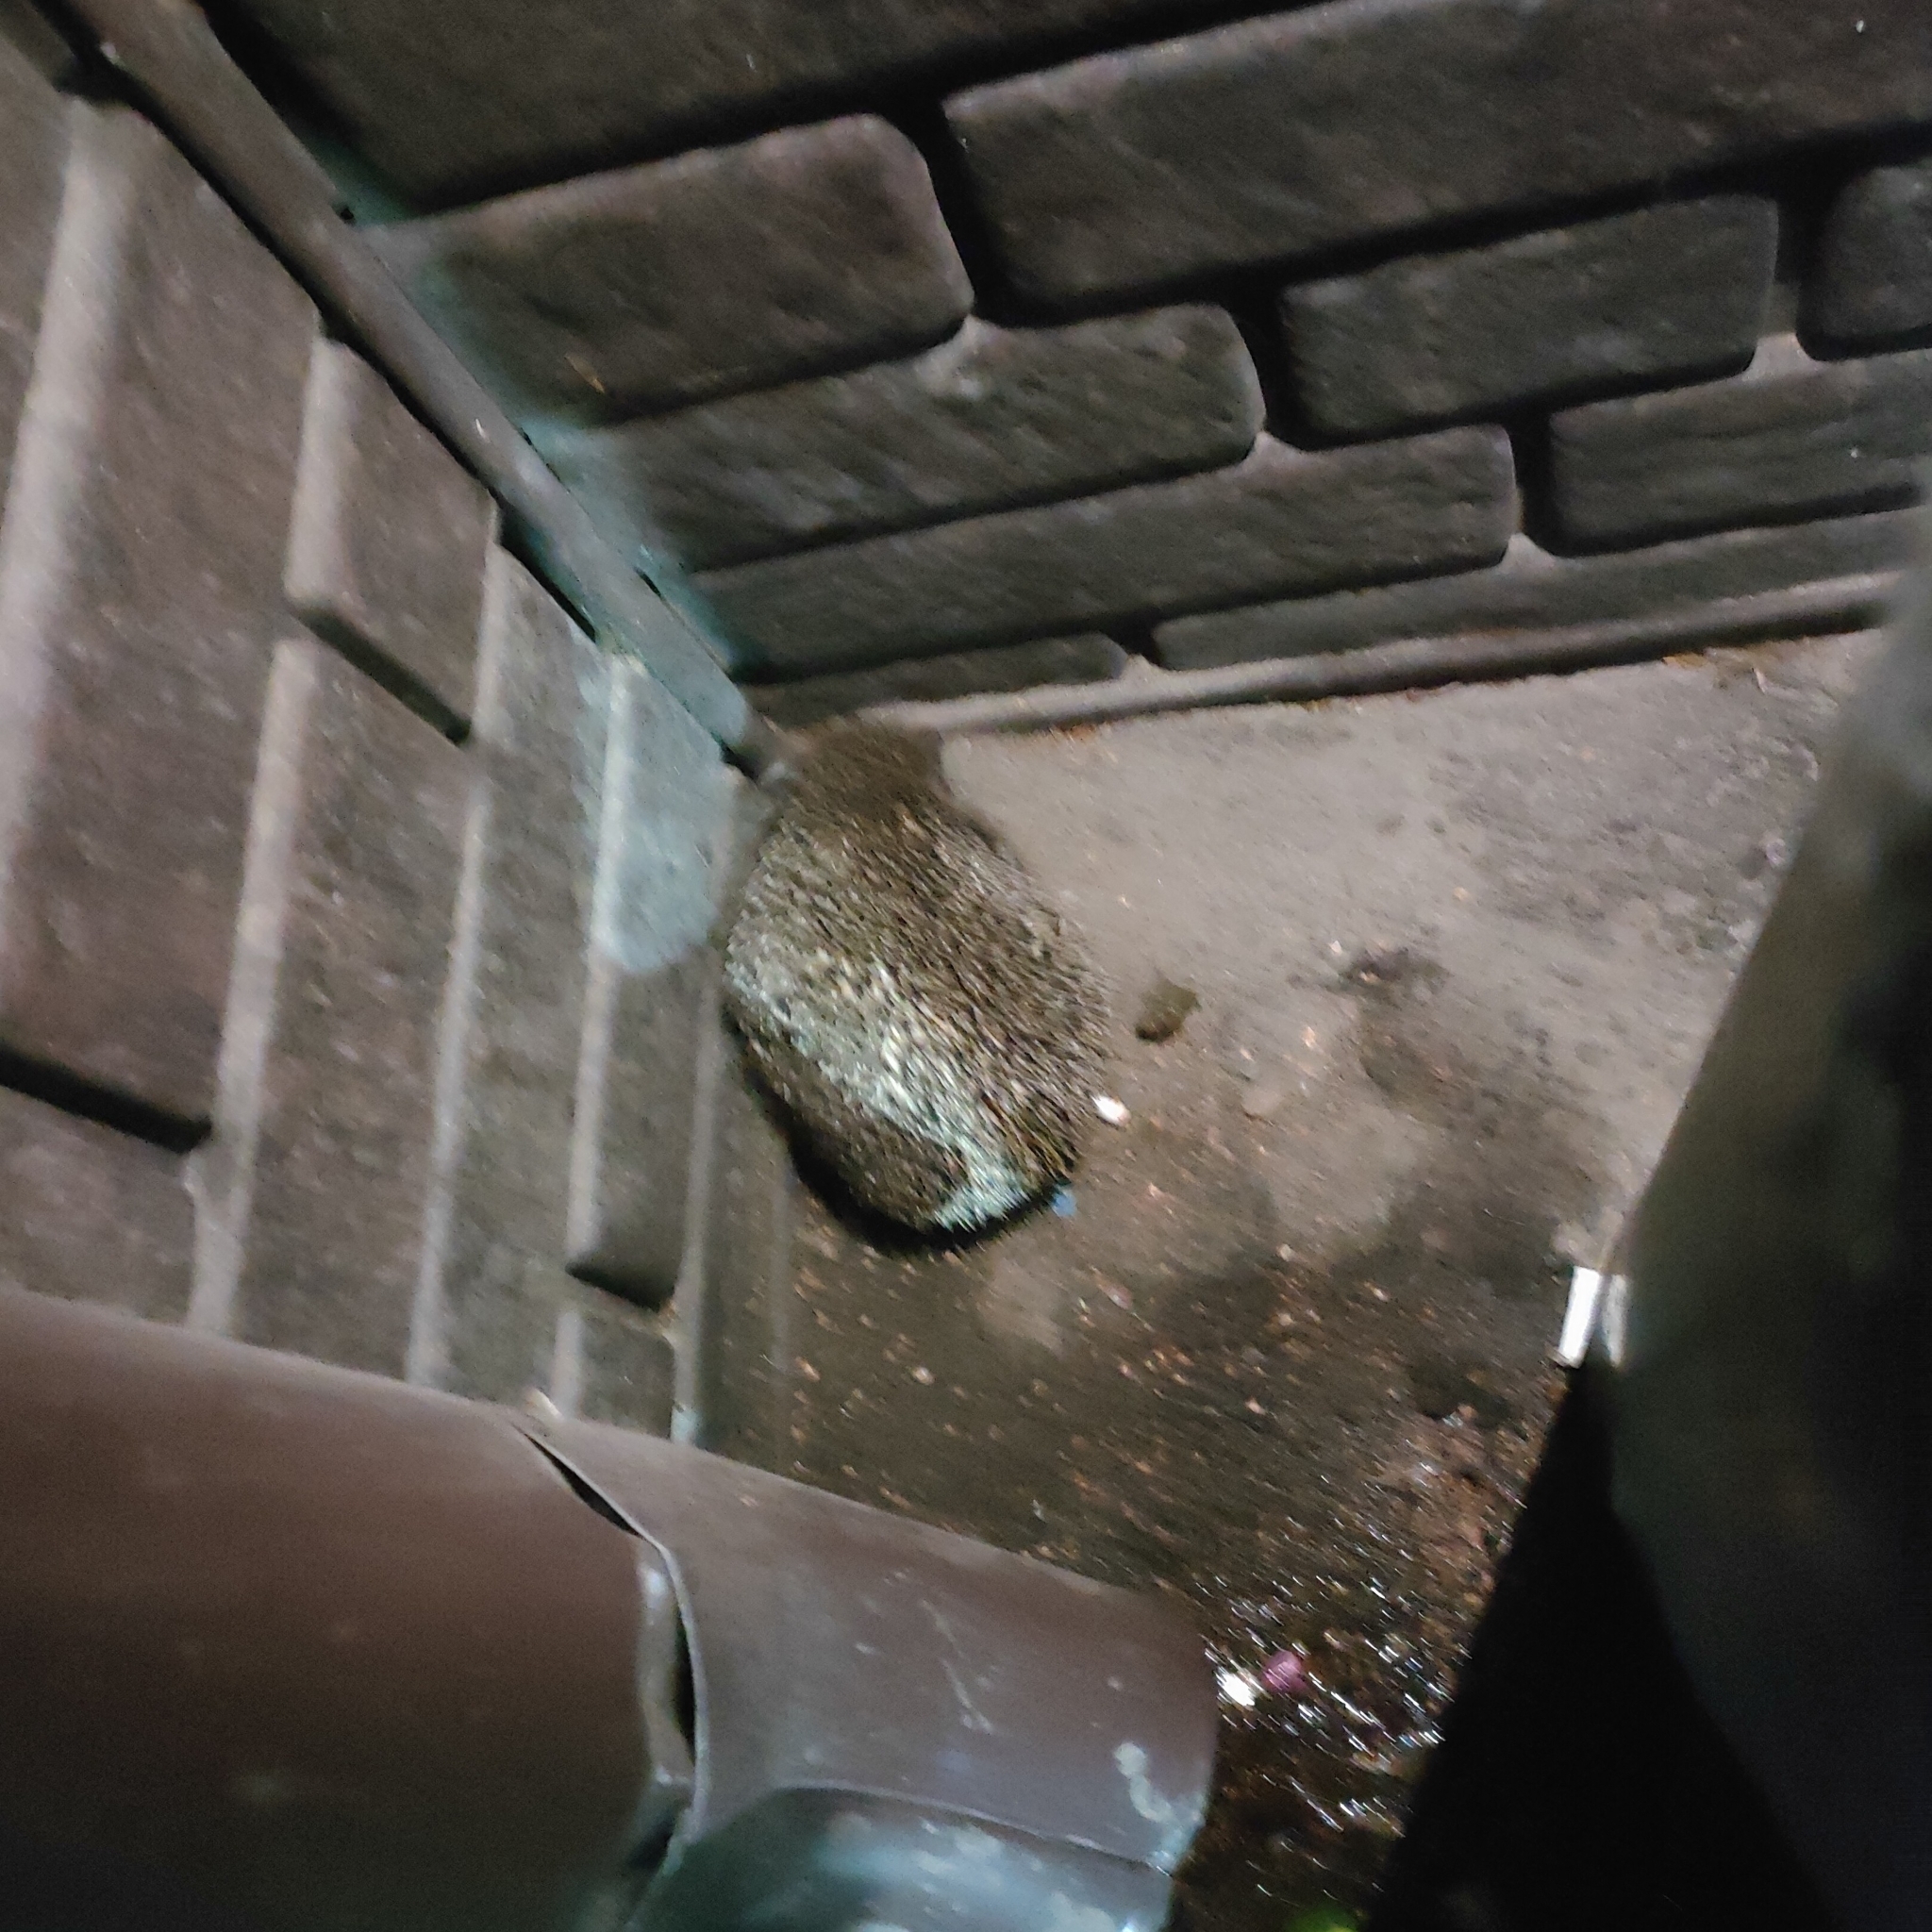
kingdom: Animalia
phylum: Chordata
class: Mammalia
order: Erinaceomorpha
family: Erinaceidae
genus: Erinaceus
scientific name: Erinaceus roumanicus
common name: Northern white-breasted hedgehog
